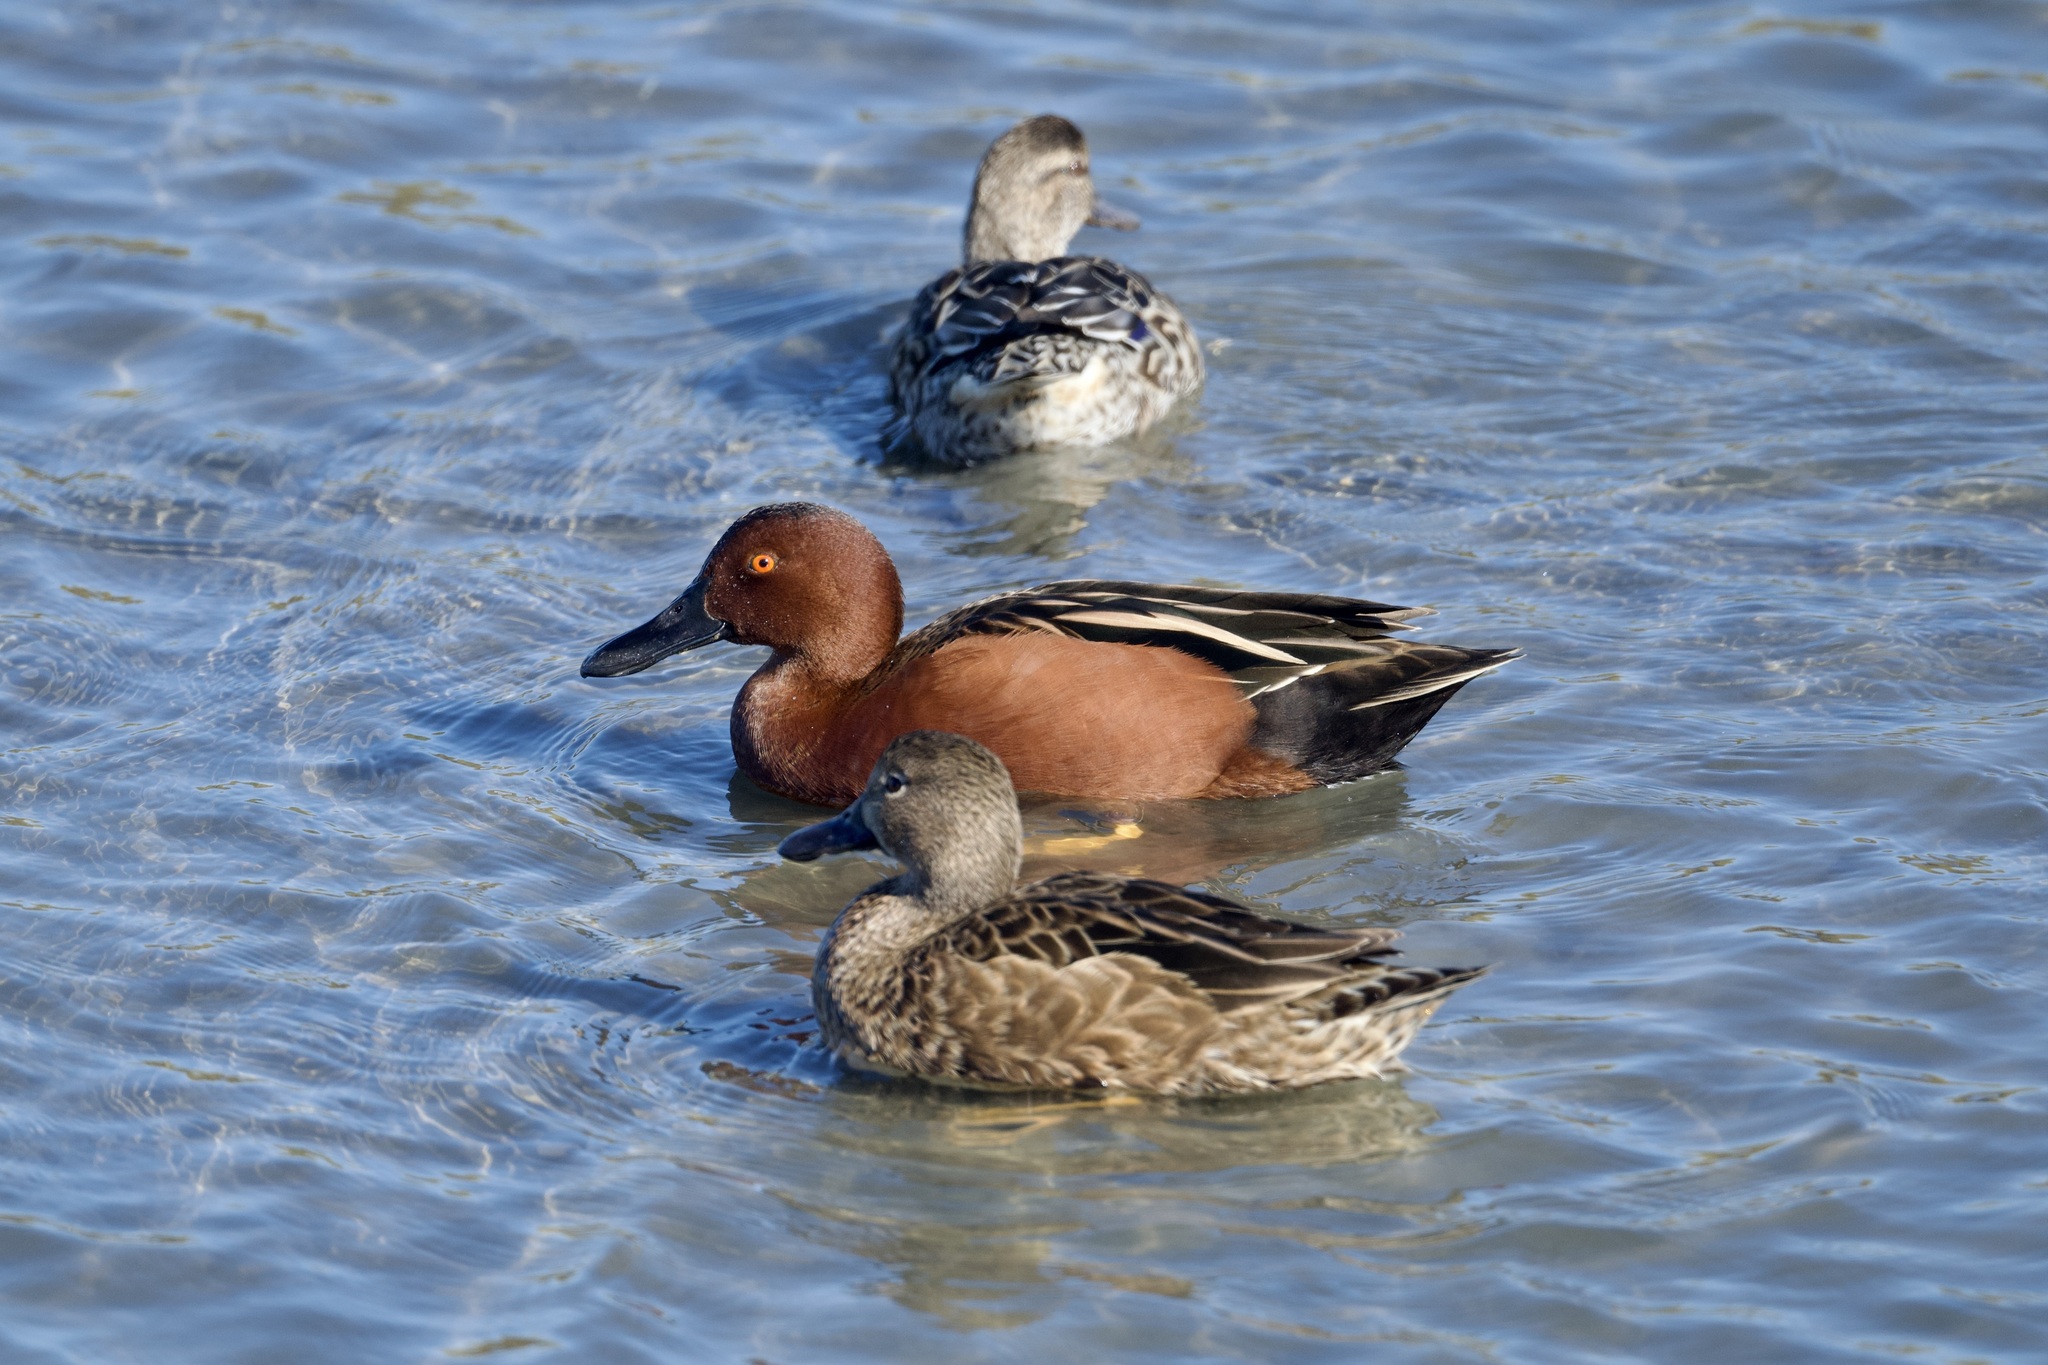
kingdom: Animalia
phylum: Chordata
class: Aves
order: Anseriformes
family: Anatidae
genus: Spatula
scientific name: Spatula cyanoptera
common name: Cinnamon teal
